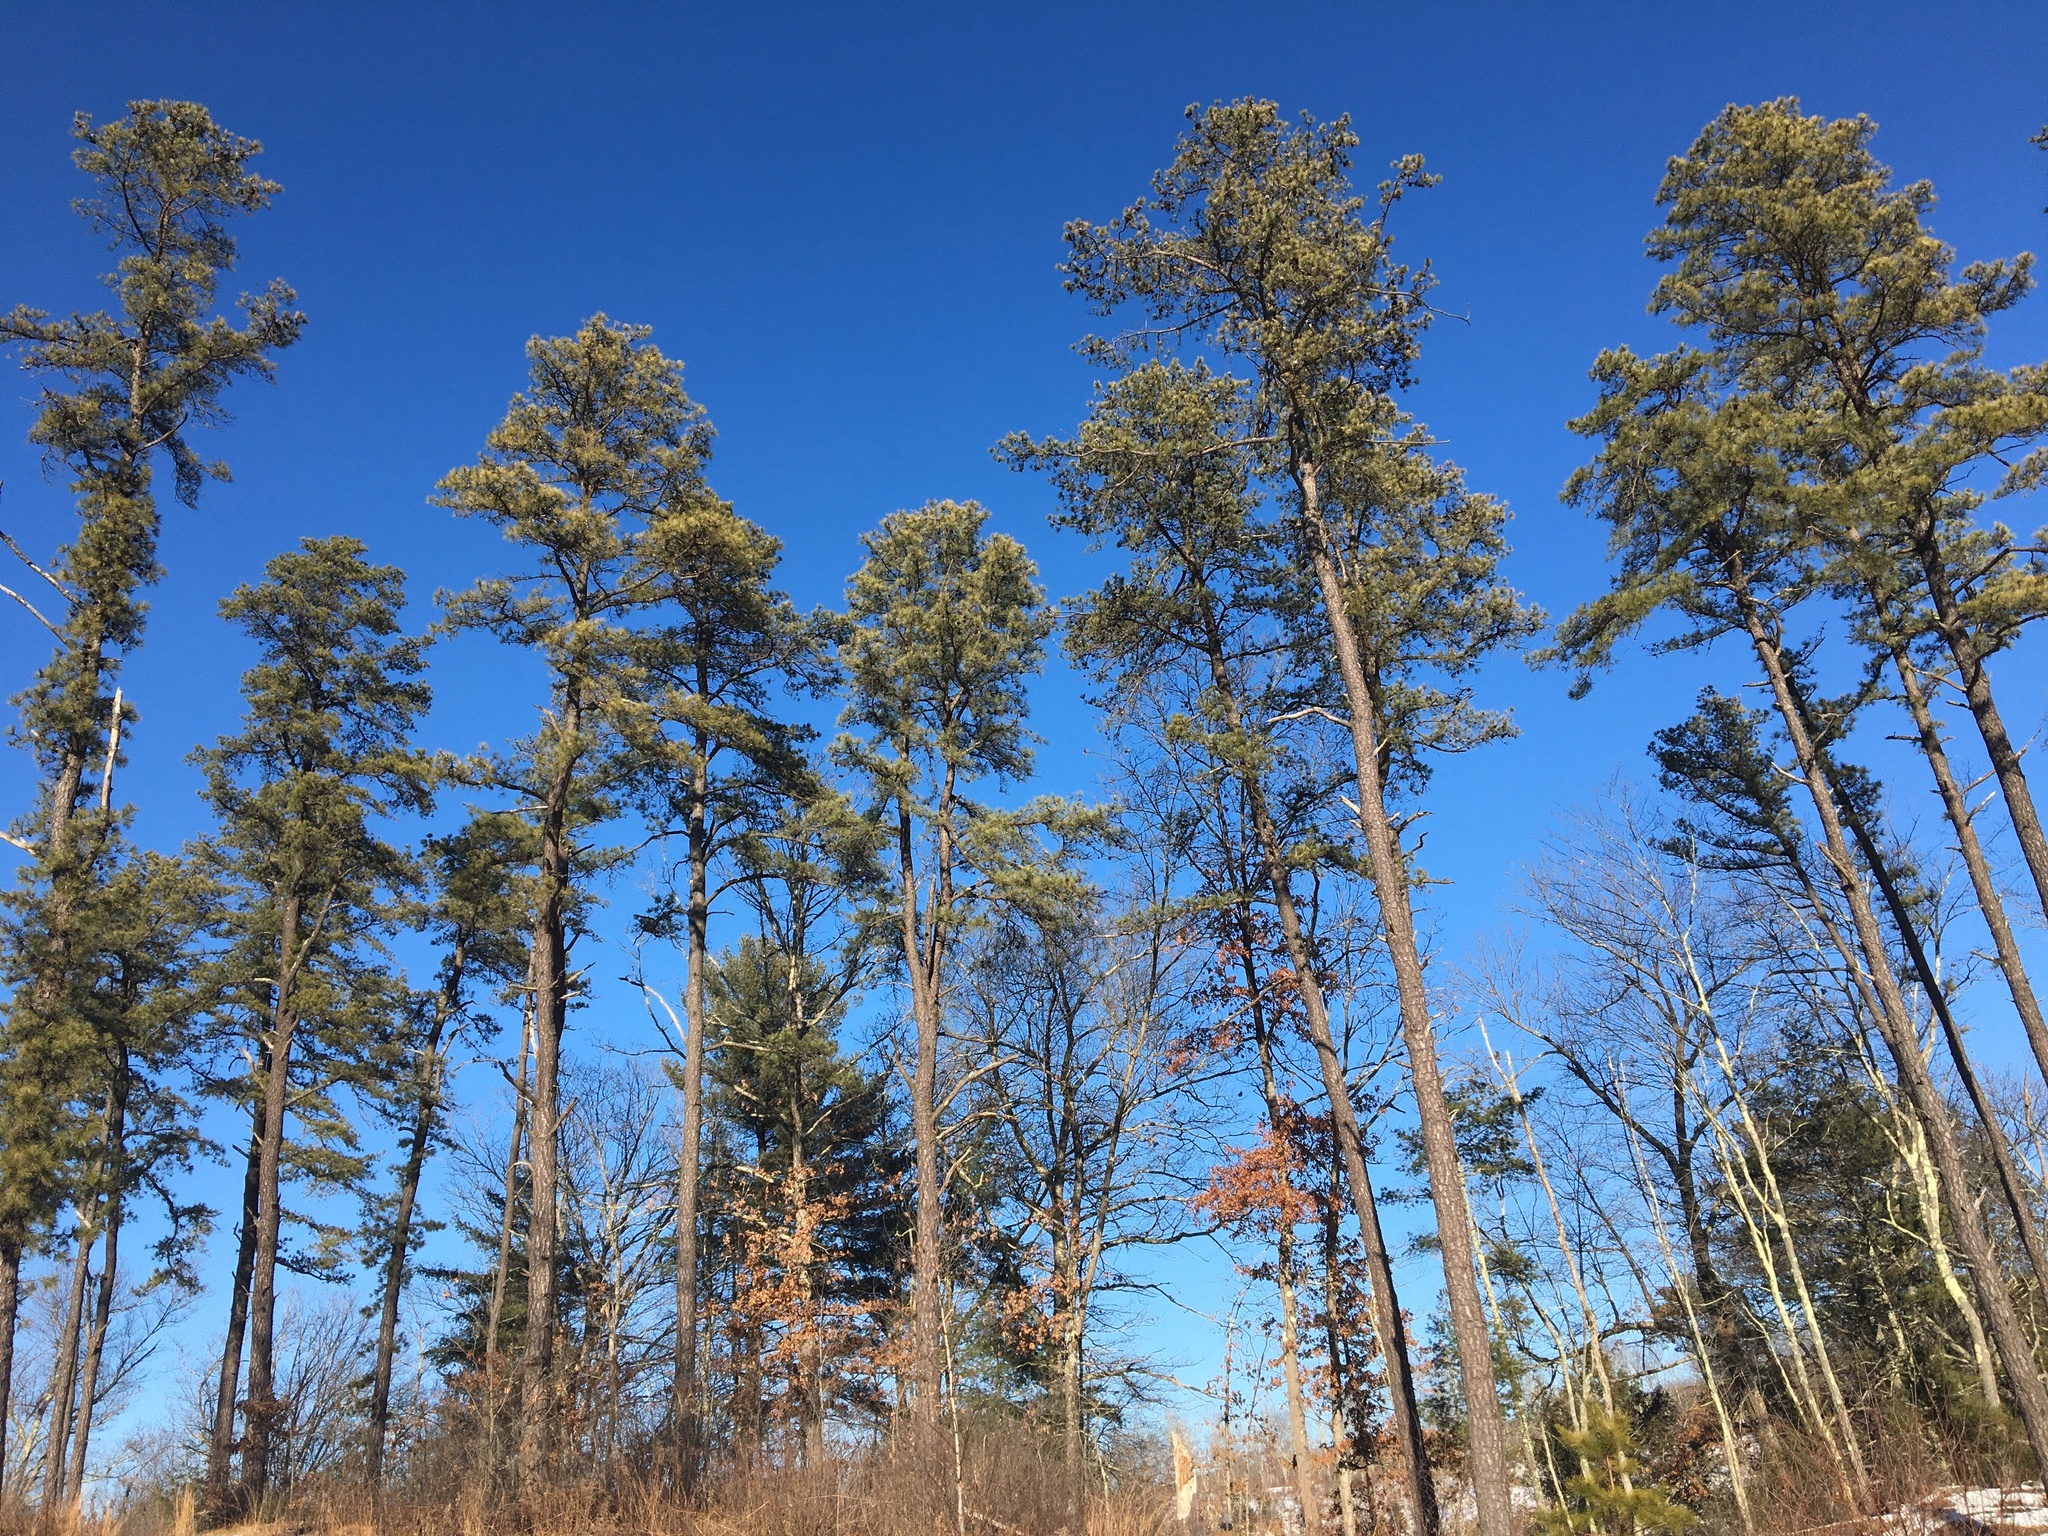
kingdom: Plantae
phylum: Tracheophyta
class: Pinopsida
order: Pinales
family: Pinaceae
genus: Pinus
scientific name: Pinus rigida
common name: Pitch pine
